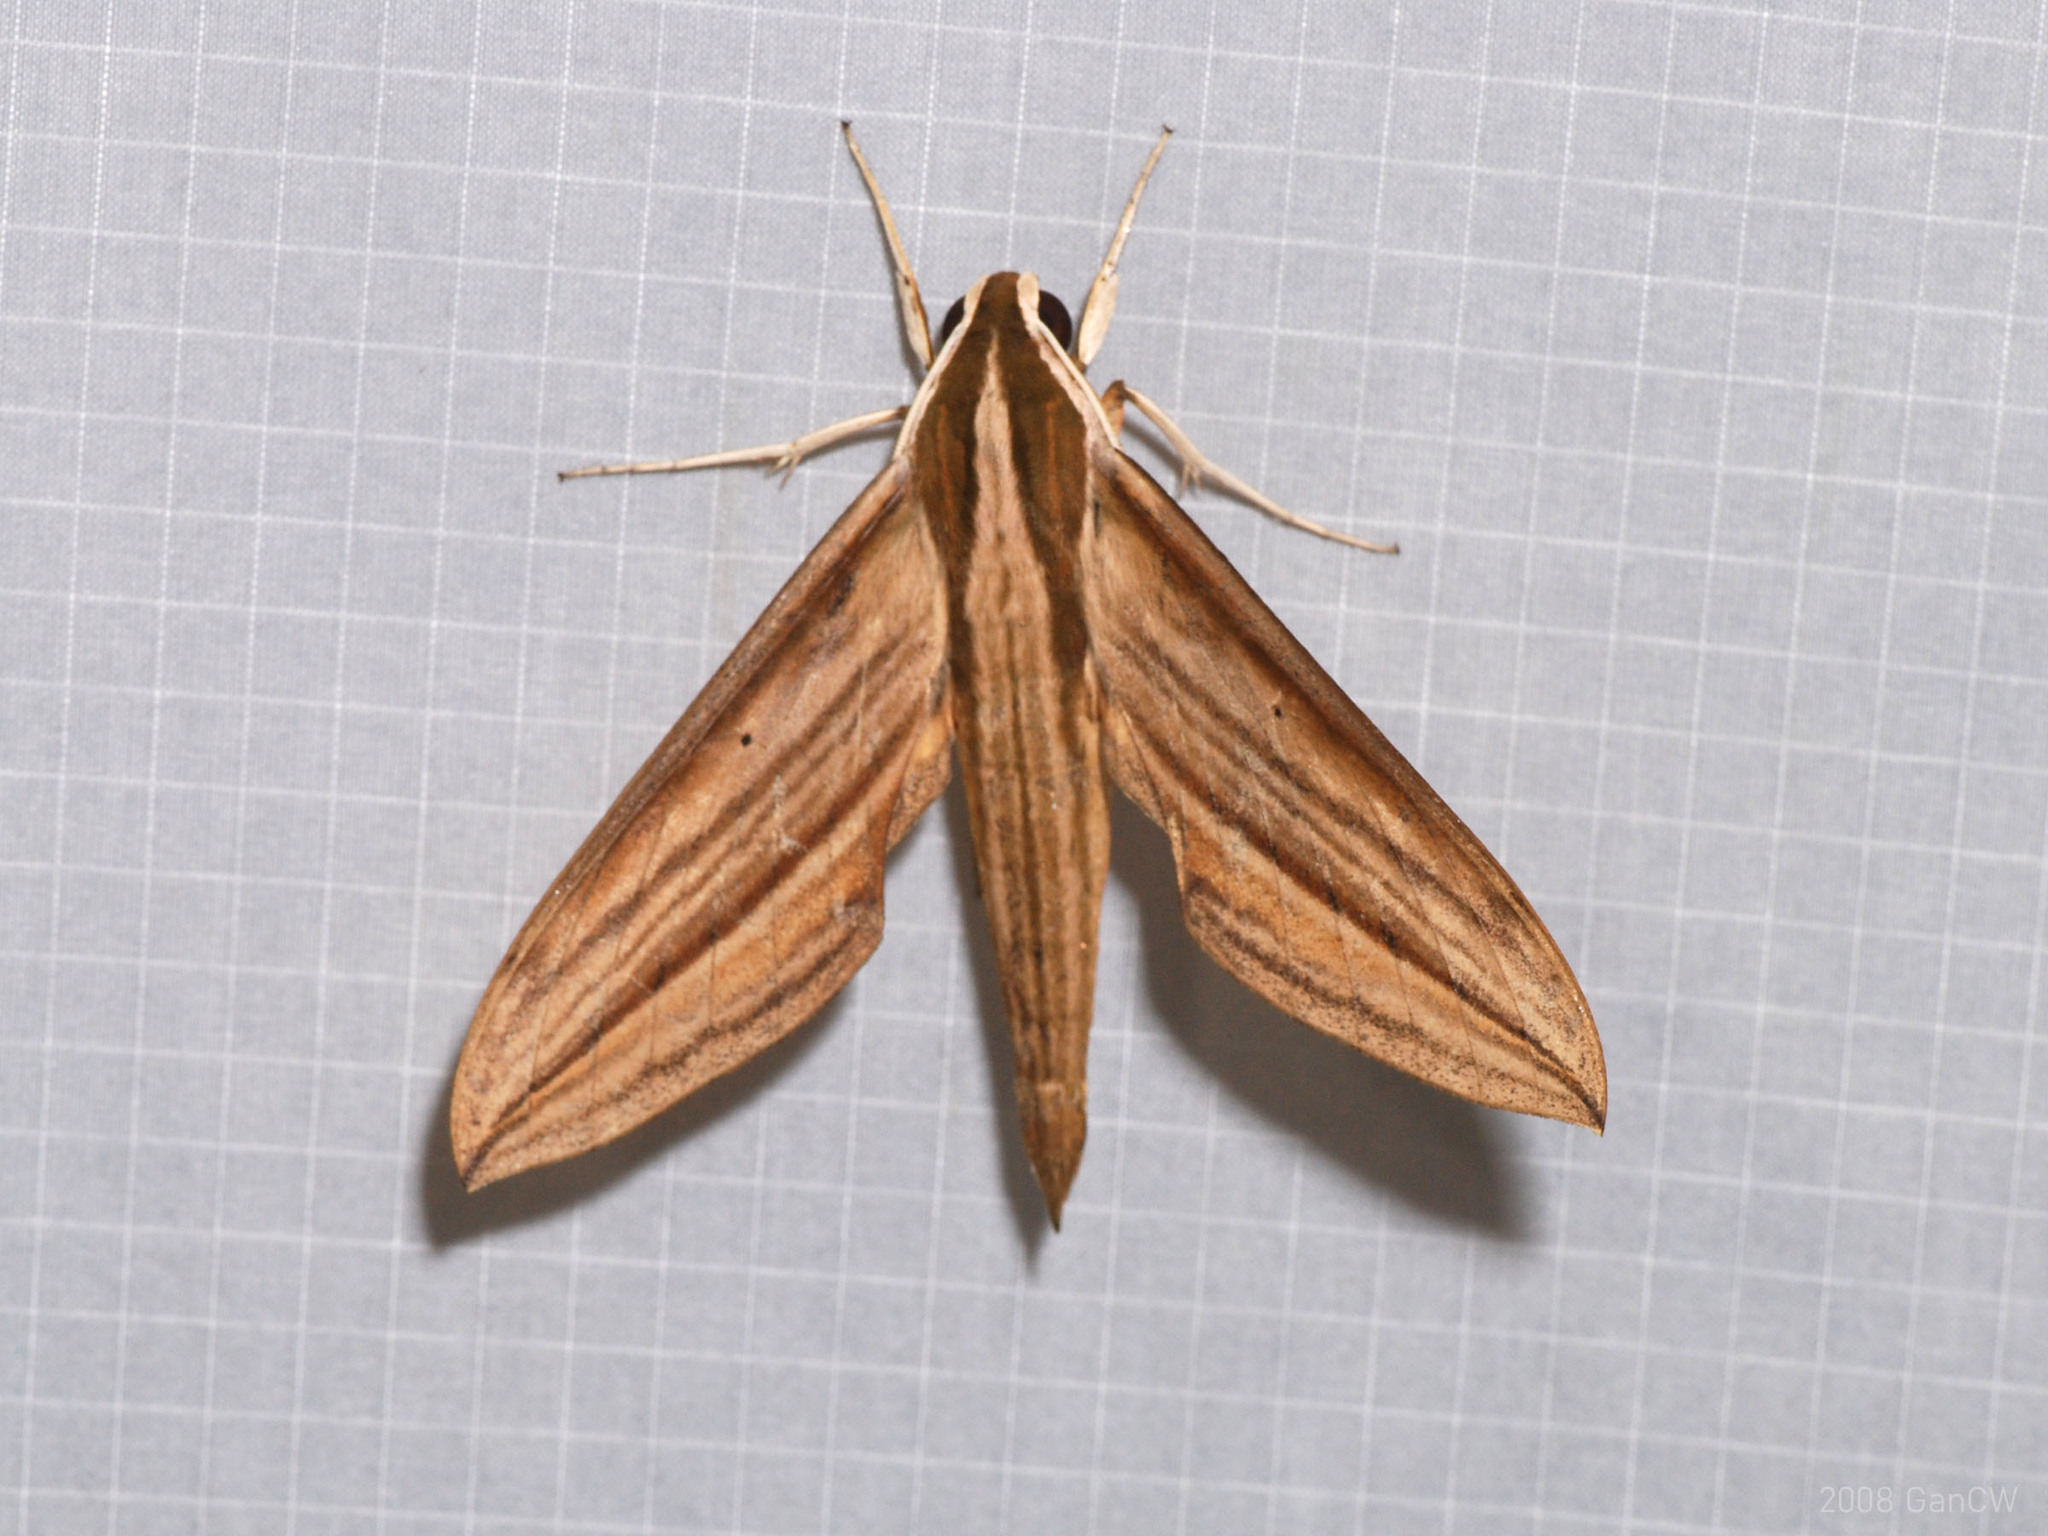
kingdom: Animalia
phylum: Arthropoda
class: Insecta
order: Lepidoptera
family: Sphingidae
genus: Cechetra
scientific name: Cechetra lineosa
